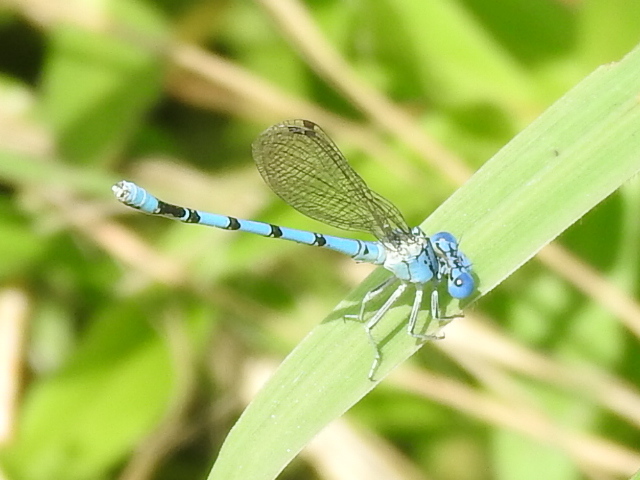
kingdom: Animalia
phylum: Arthropoda
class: Insecta
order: Odonata
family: Coenagrionidae
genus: Argia
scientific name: Argia nahuana
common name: Aztec dancer
